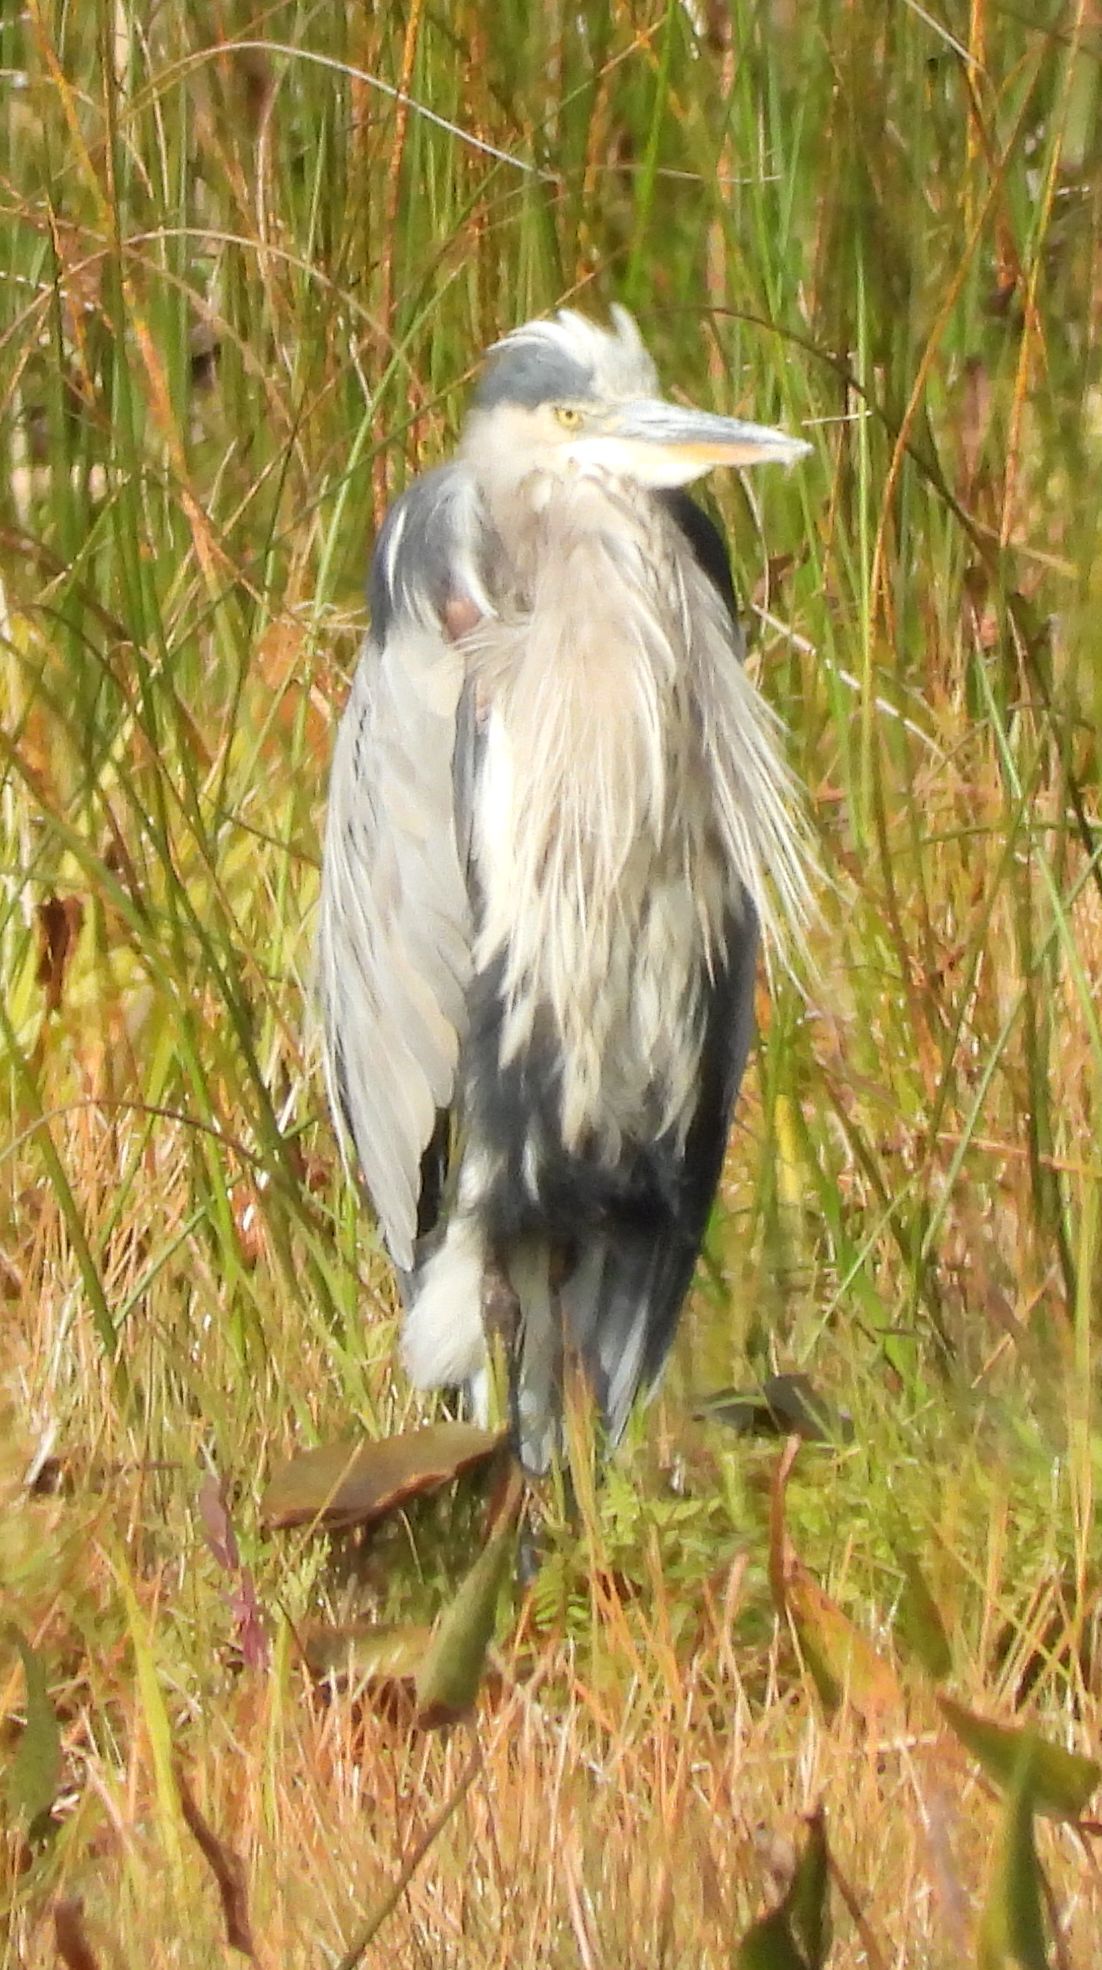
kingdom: Animalia
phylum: Chordata
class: Aves
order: Pelecaniformes
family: Ardeidae
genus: Ardea
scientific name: Ardea herodias
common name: Great blue heron
